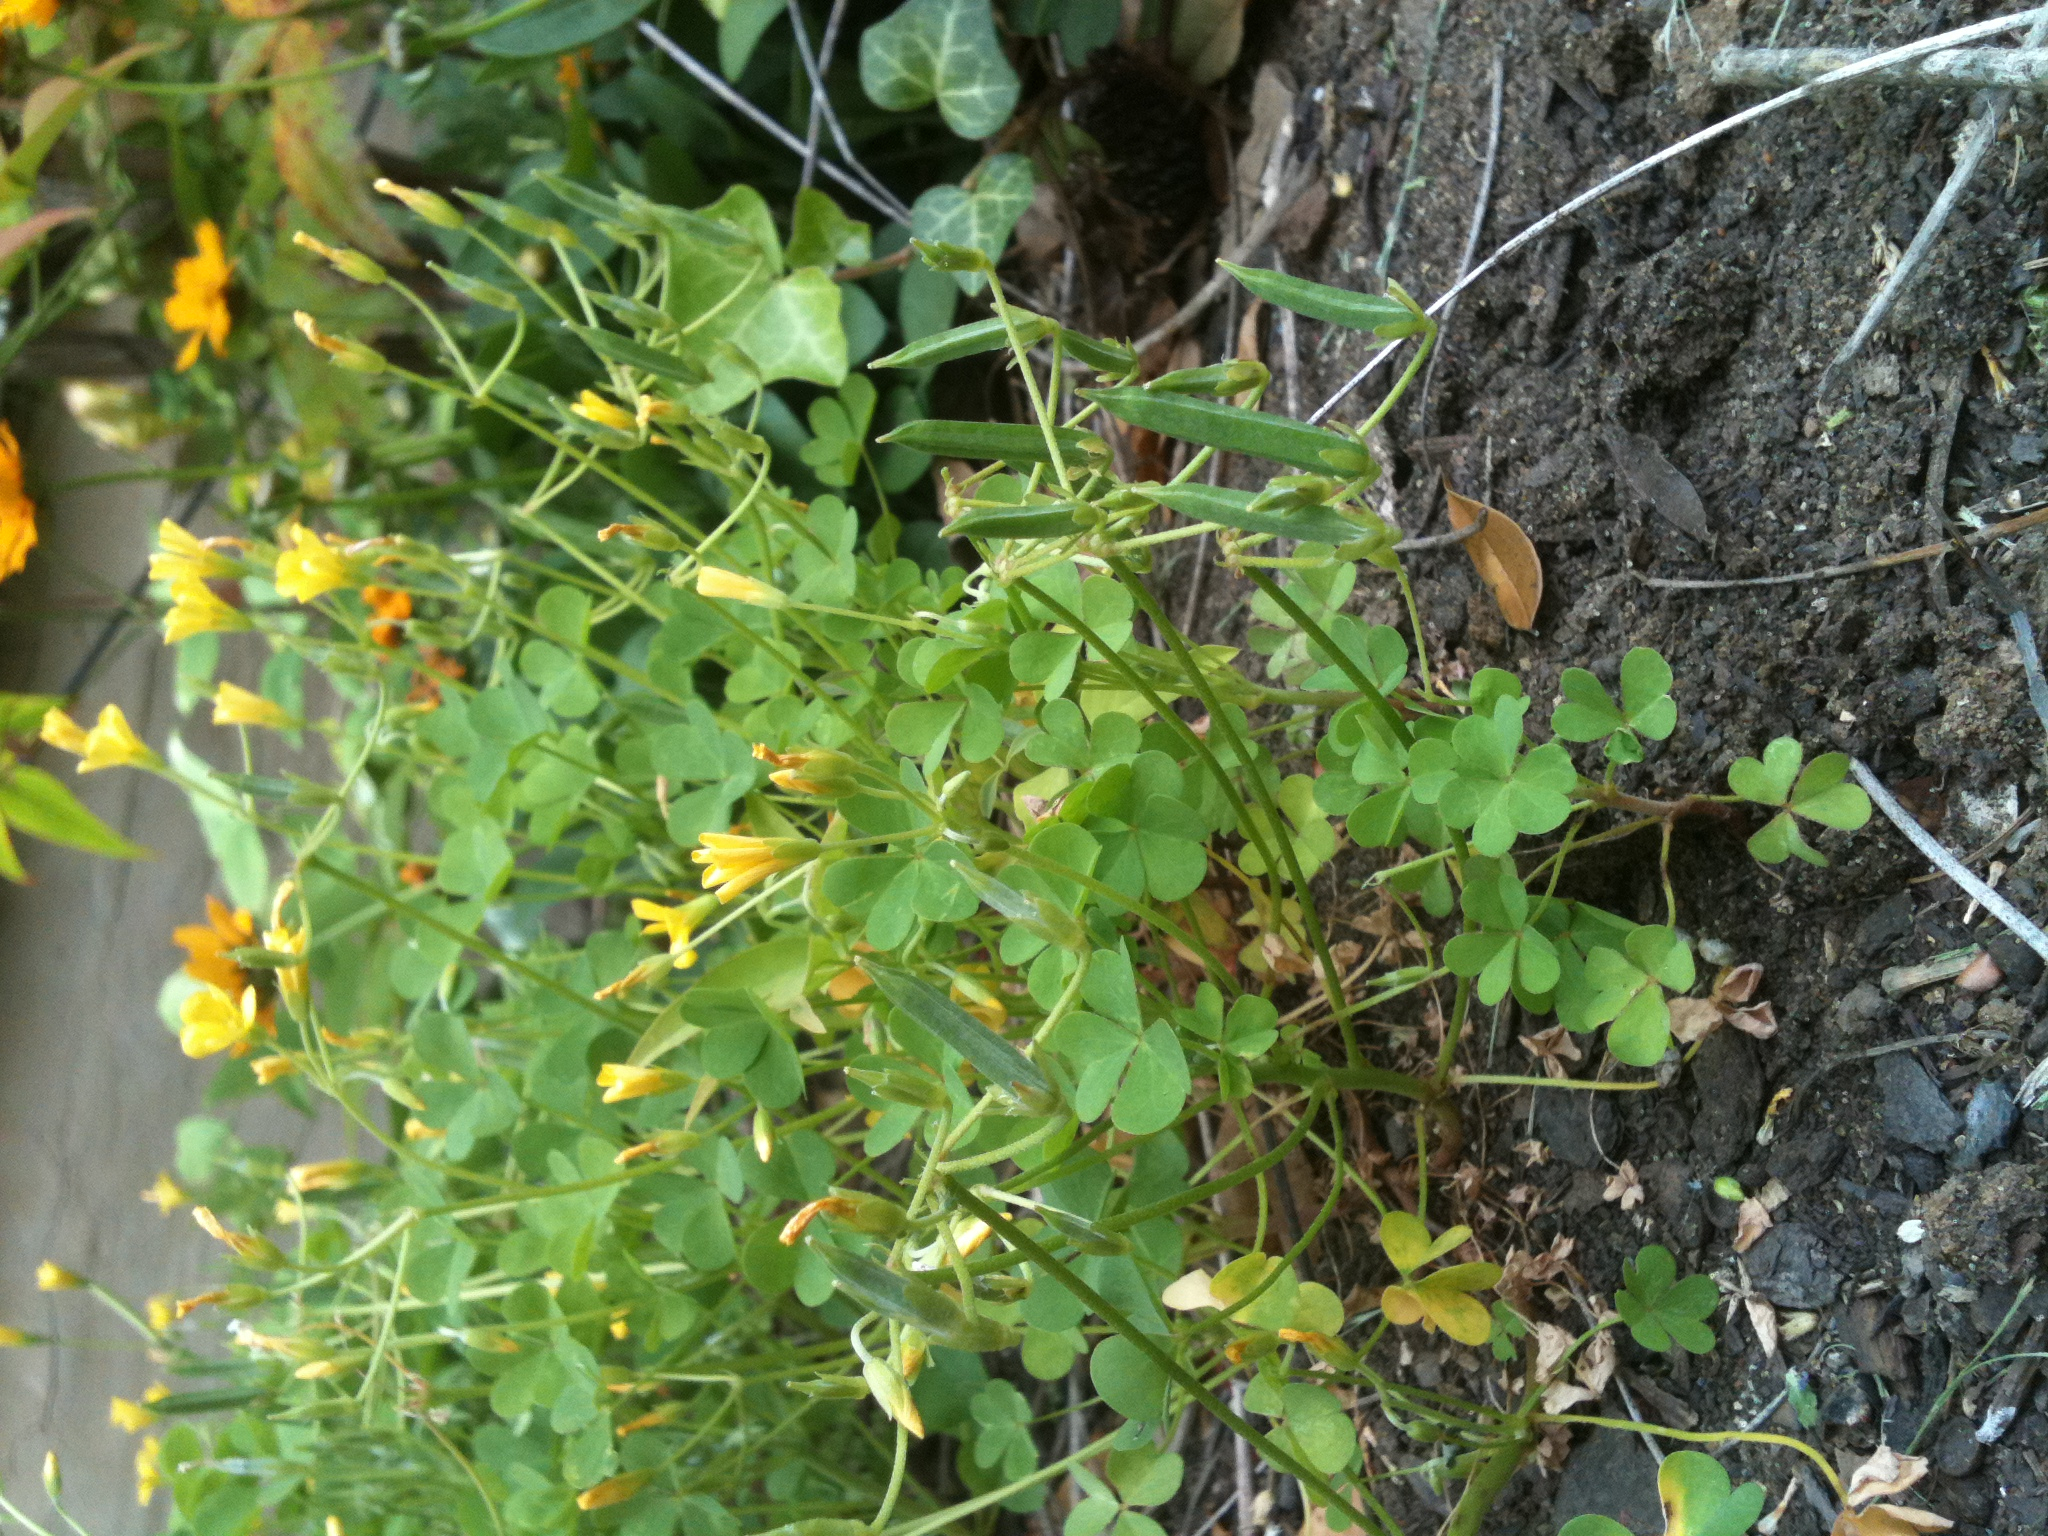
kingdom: Plantae
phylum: Tracheophyta
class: Magnoliopsida
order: Oxalidales
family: Oxalidaceae
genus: Oxalis
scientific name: Oxalis dillenii
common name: Sussex yellow-sorrel
